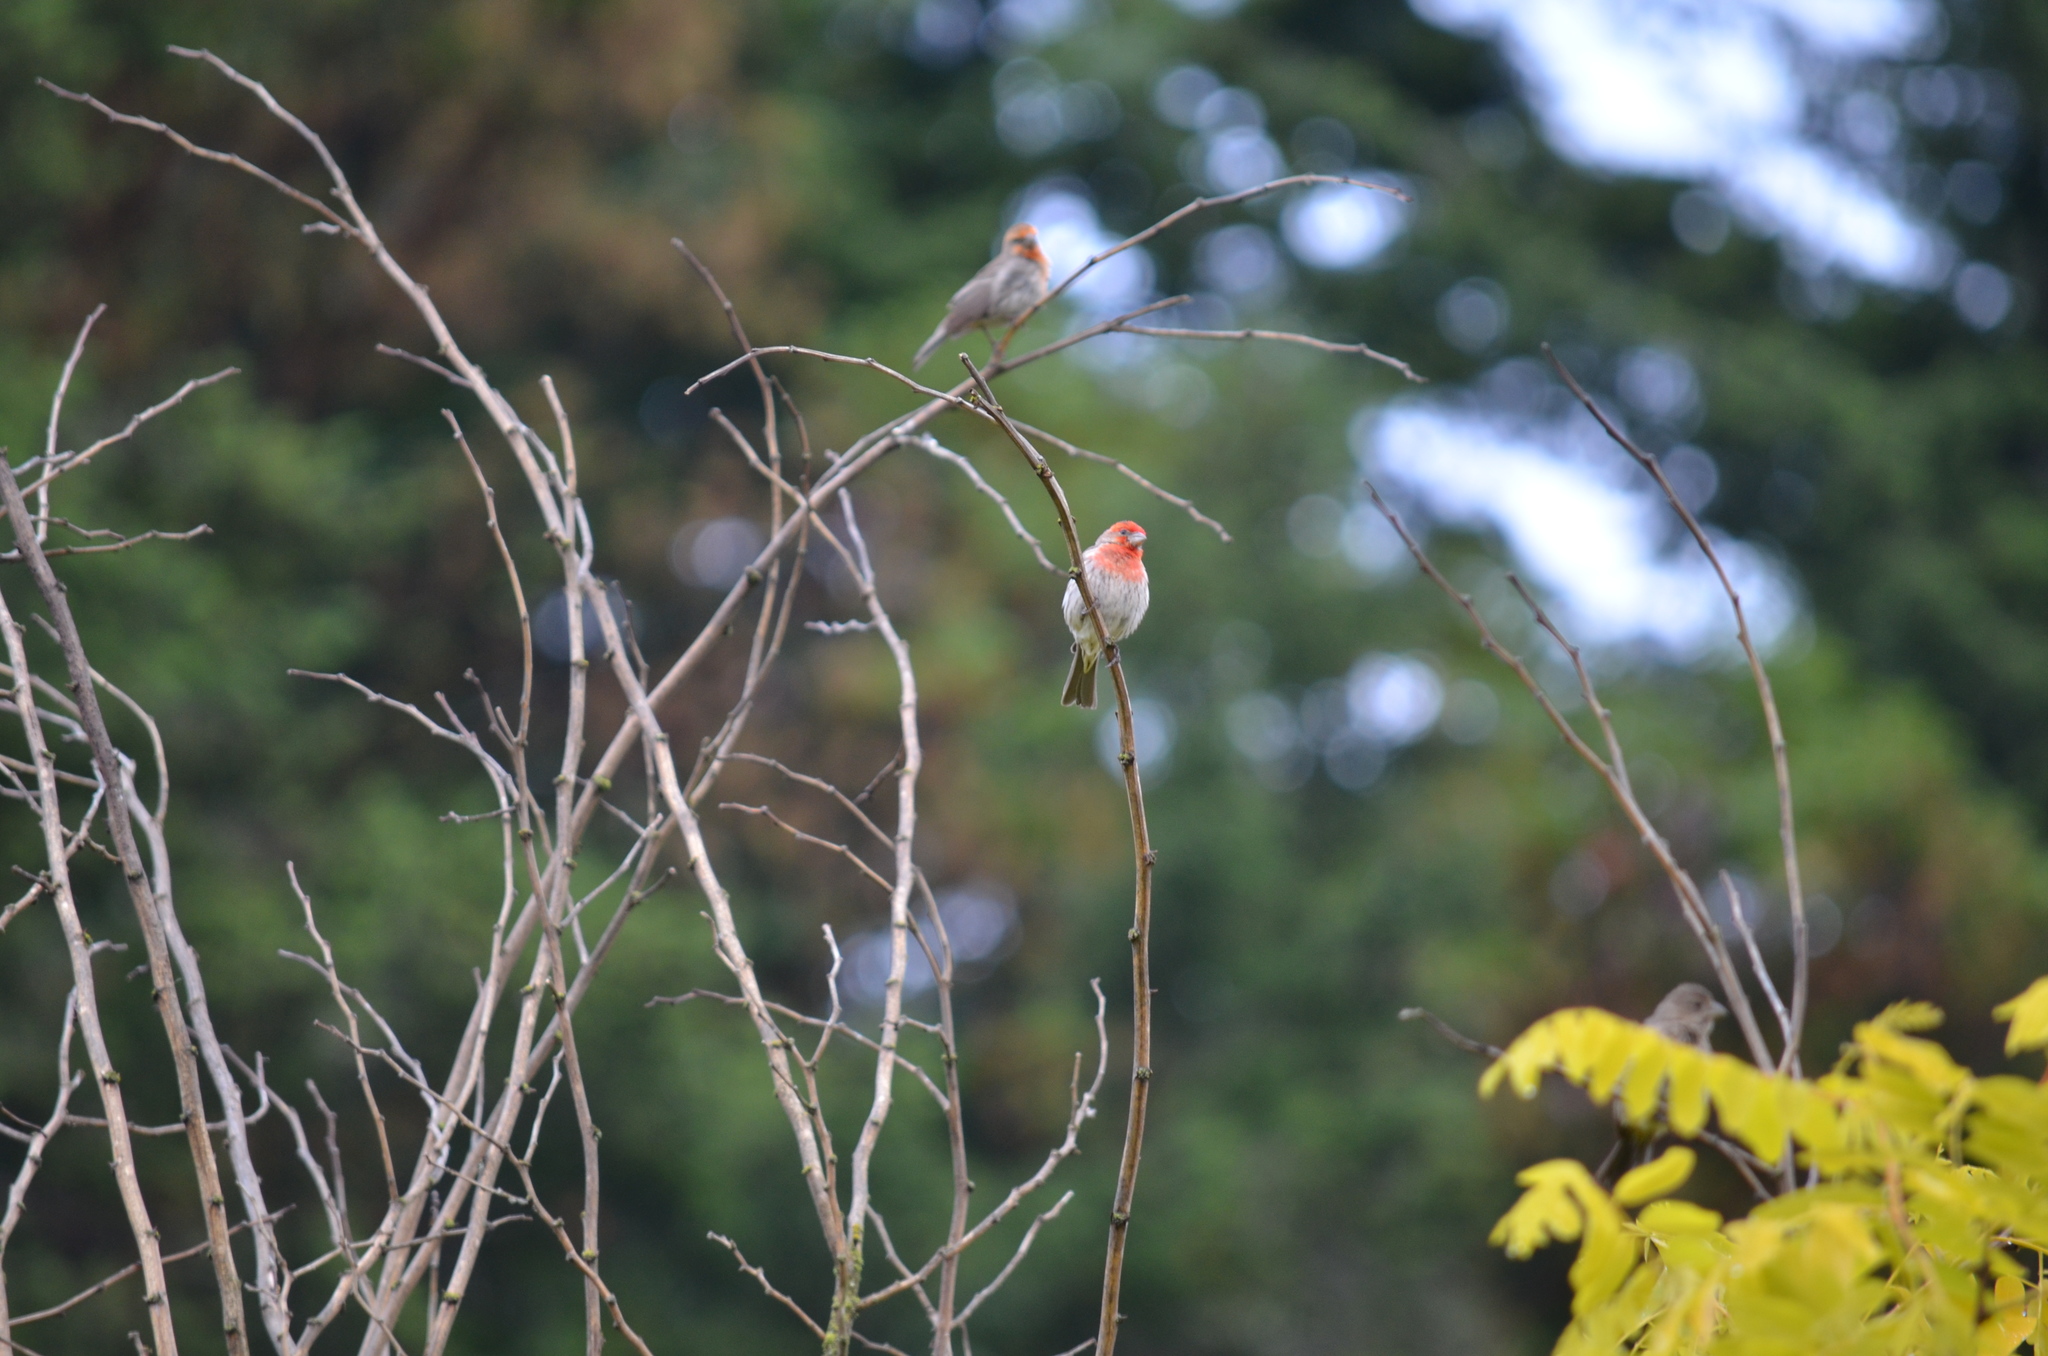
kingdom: Animalia
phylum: Chordata
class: Aves
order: Passeriformes
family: Fringillidae
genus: Haemorhous
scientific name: Haemorhous mexicanus
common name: House finch
